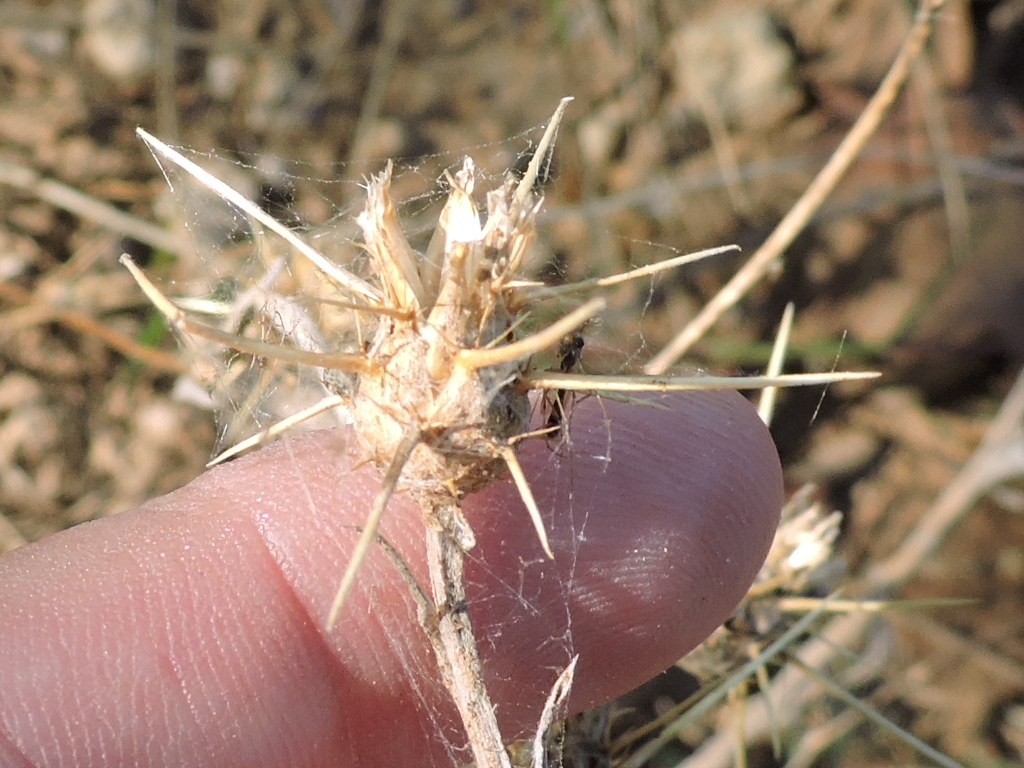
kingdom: Plantae
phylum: Tracheophyta
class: Magnoliopsida
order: Asterales
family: Asteraceae
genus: Centaurea
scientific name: Centaurea solstitialis
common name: Yellow star-thistle
